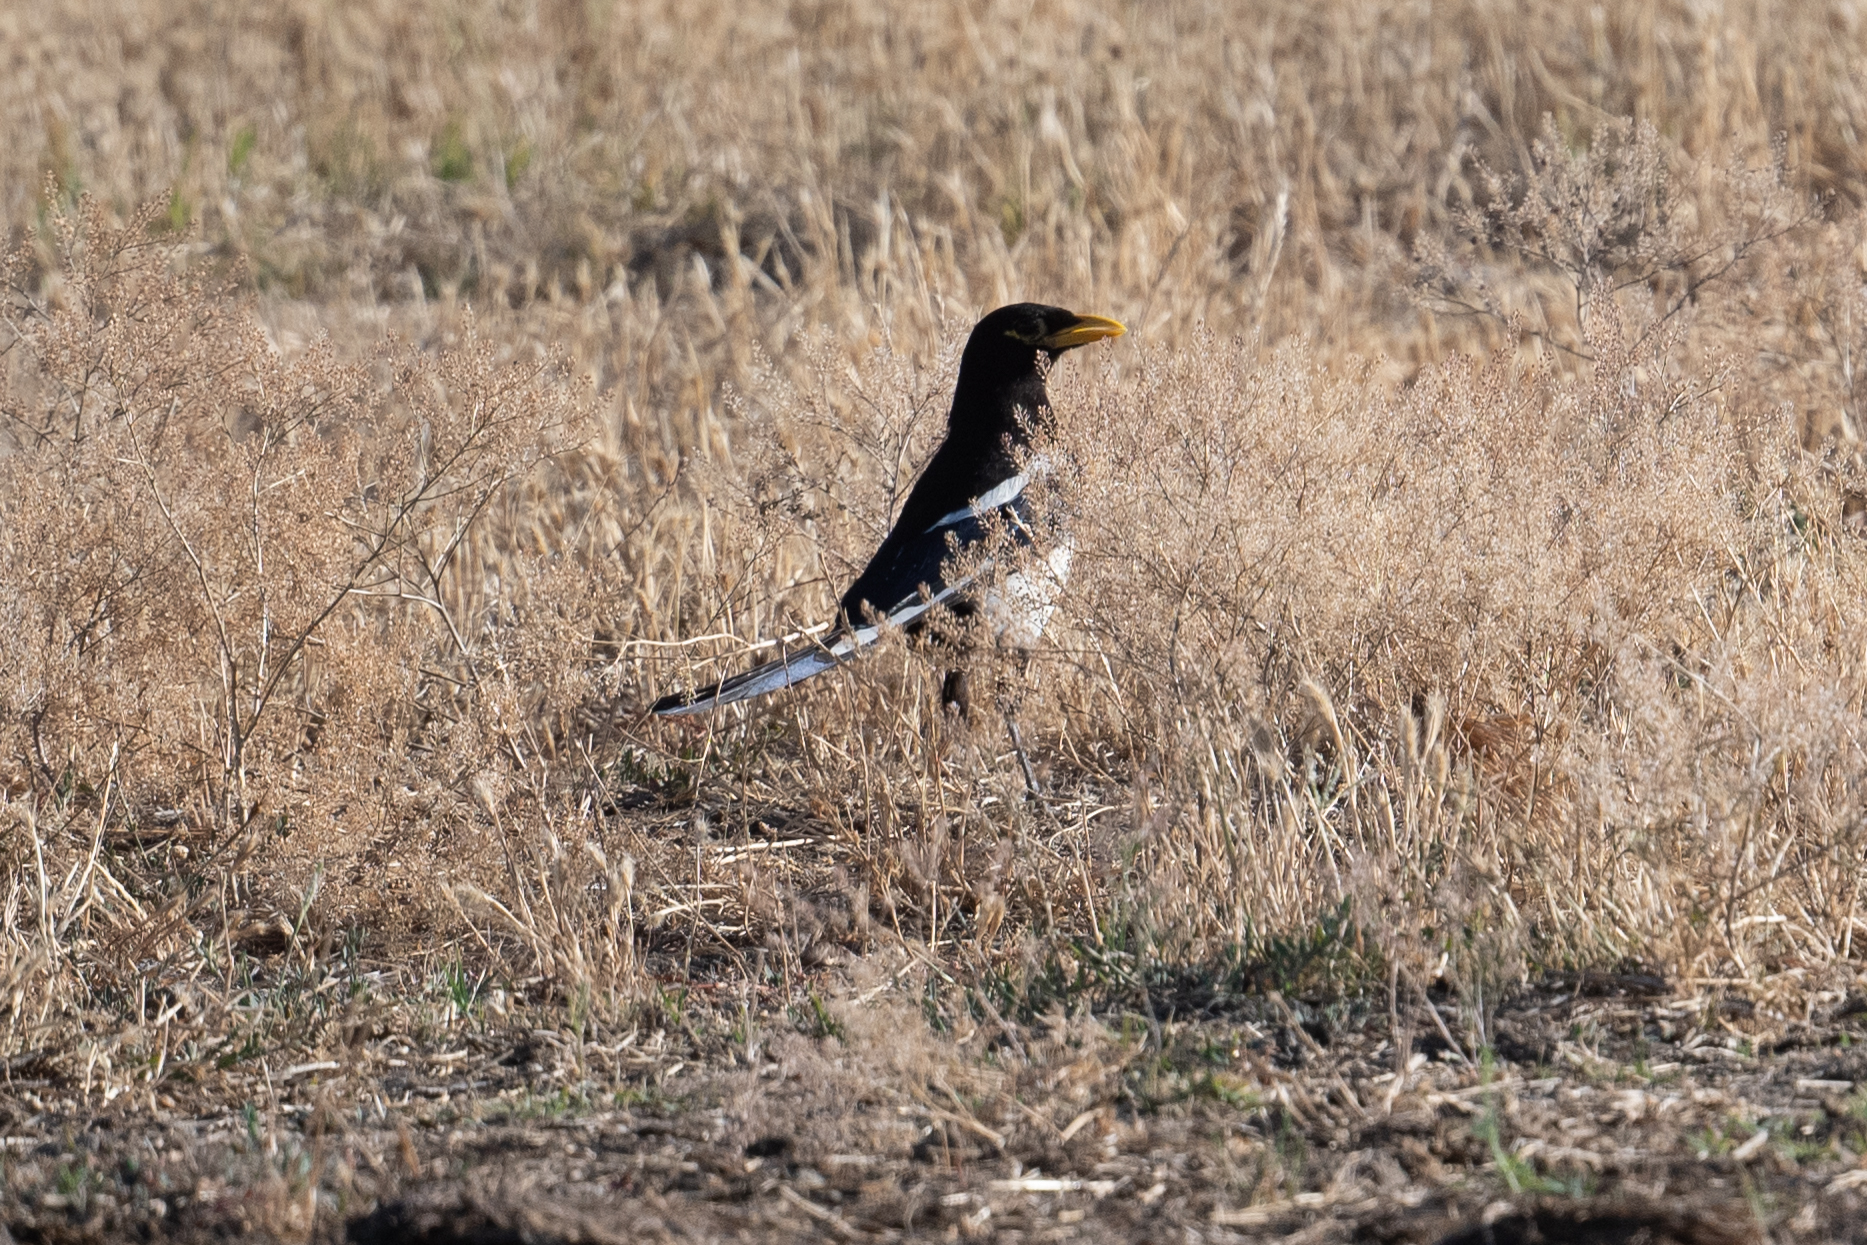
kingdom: Animalia
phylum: Chordata
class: Aves
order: Passeriformes
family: Corvidae
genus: Pica
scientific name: Pica nuttalli
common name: Yellow-billed magpie
